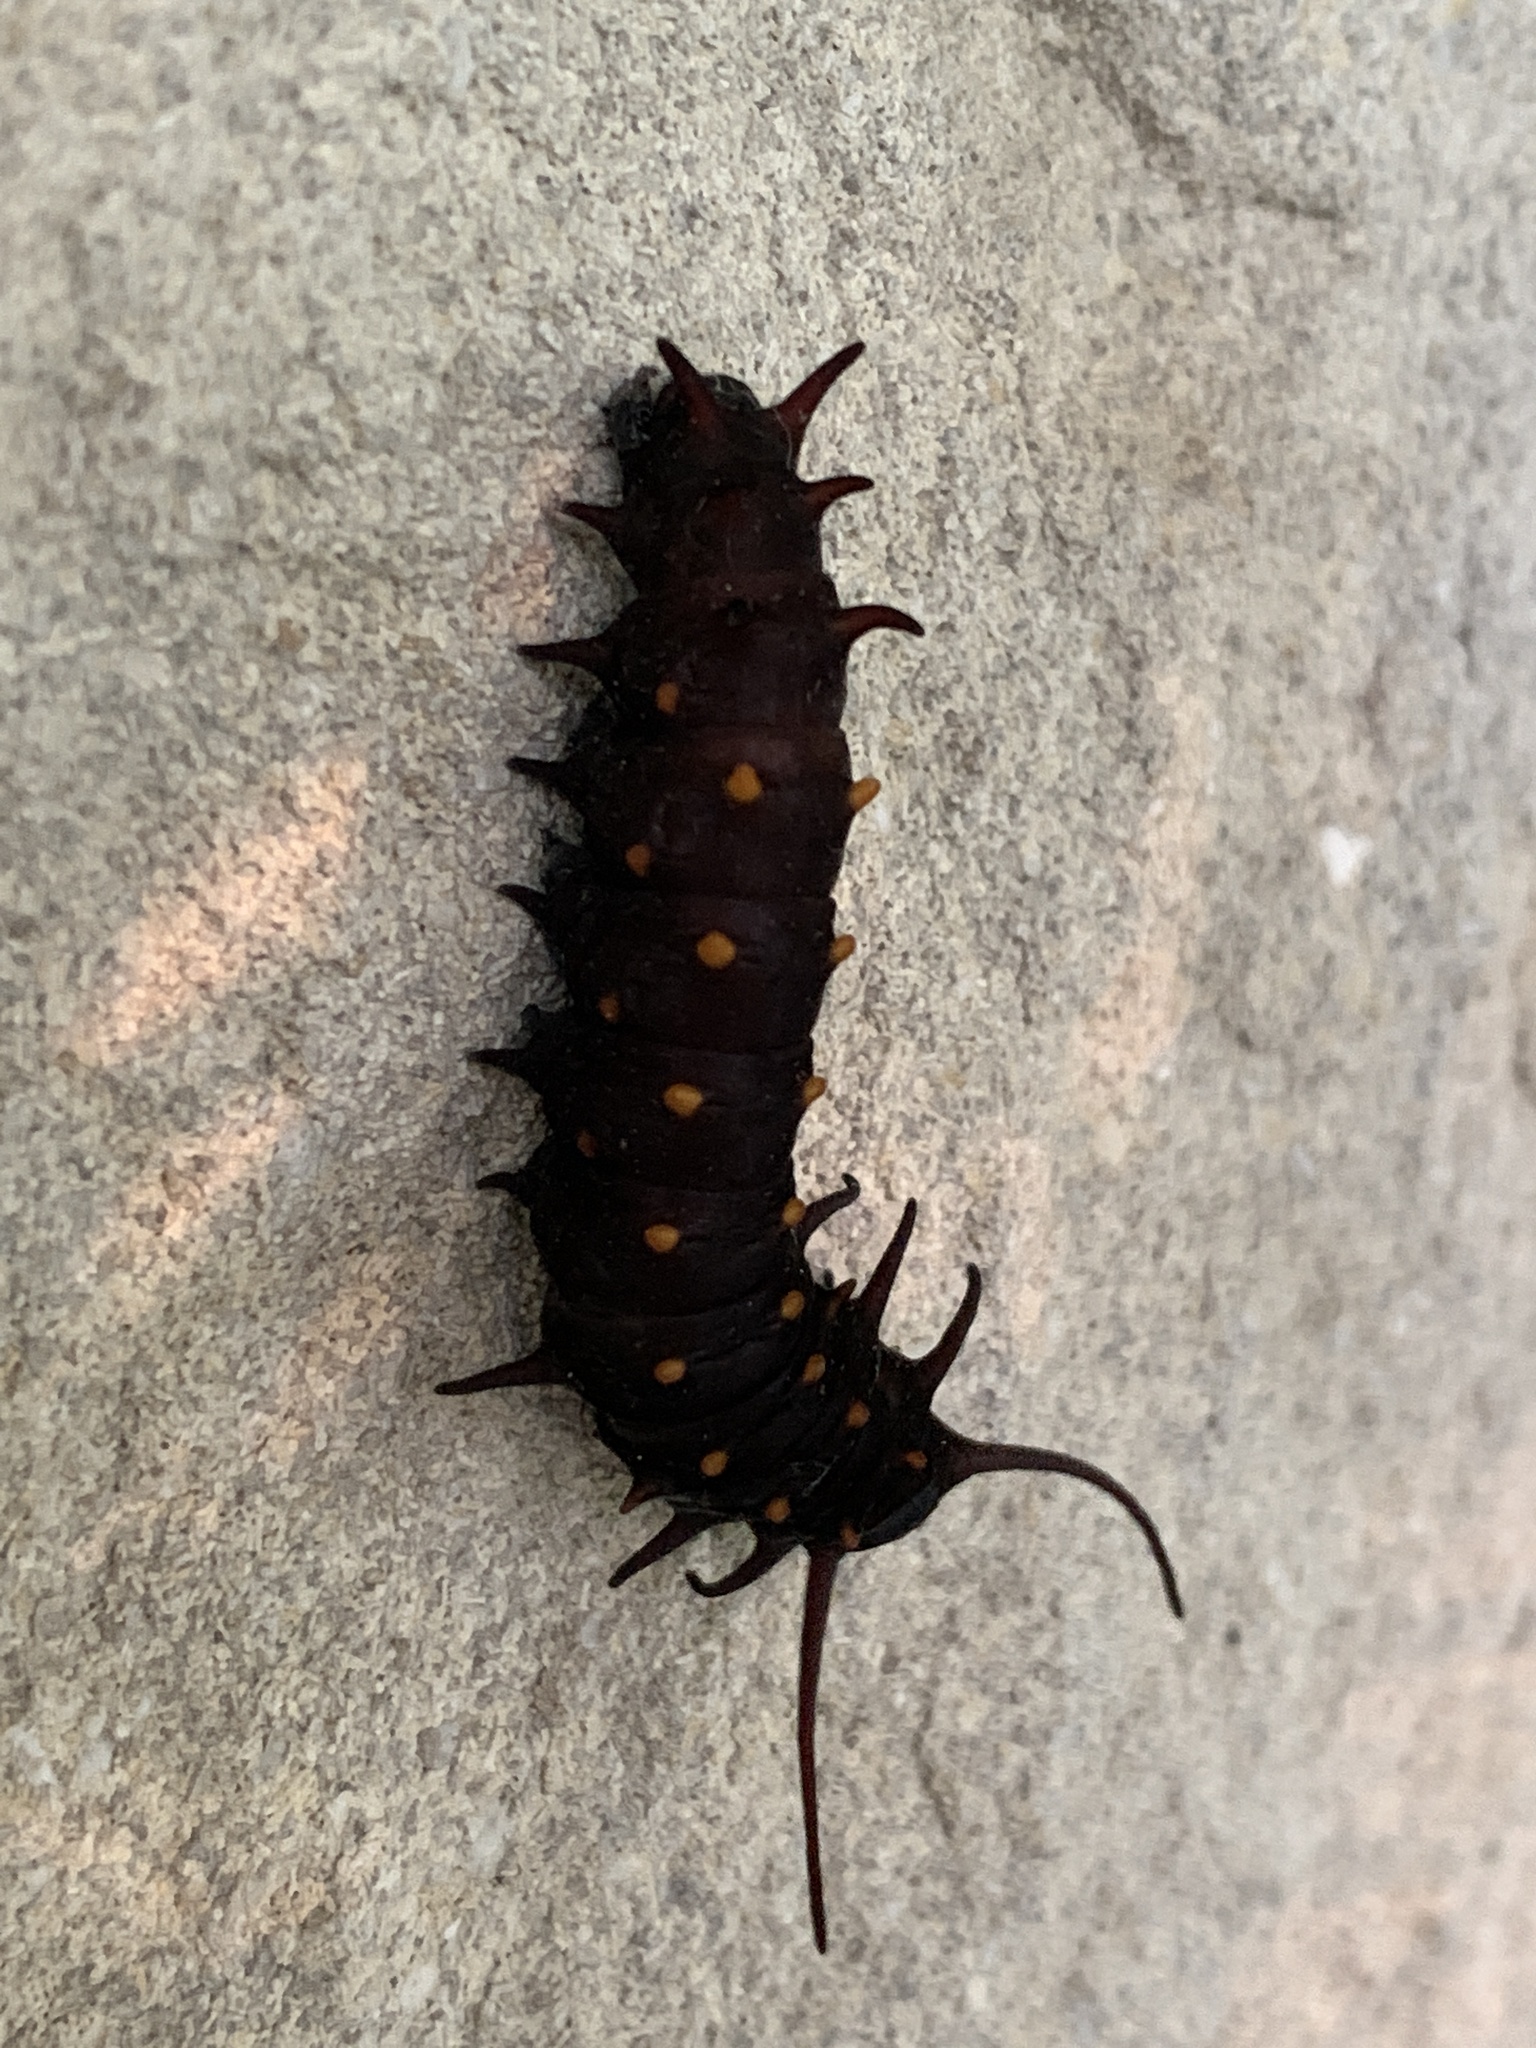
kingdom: Animalia
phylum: Arthropoda
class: Insecta
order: Lepidoptera
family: Papilionidae
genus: Battus
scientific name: Battus philenor
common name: Pipevine swallowtail
